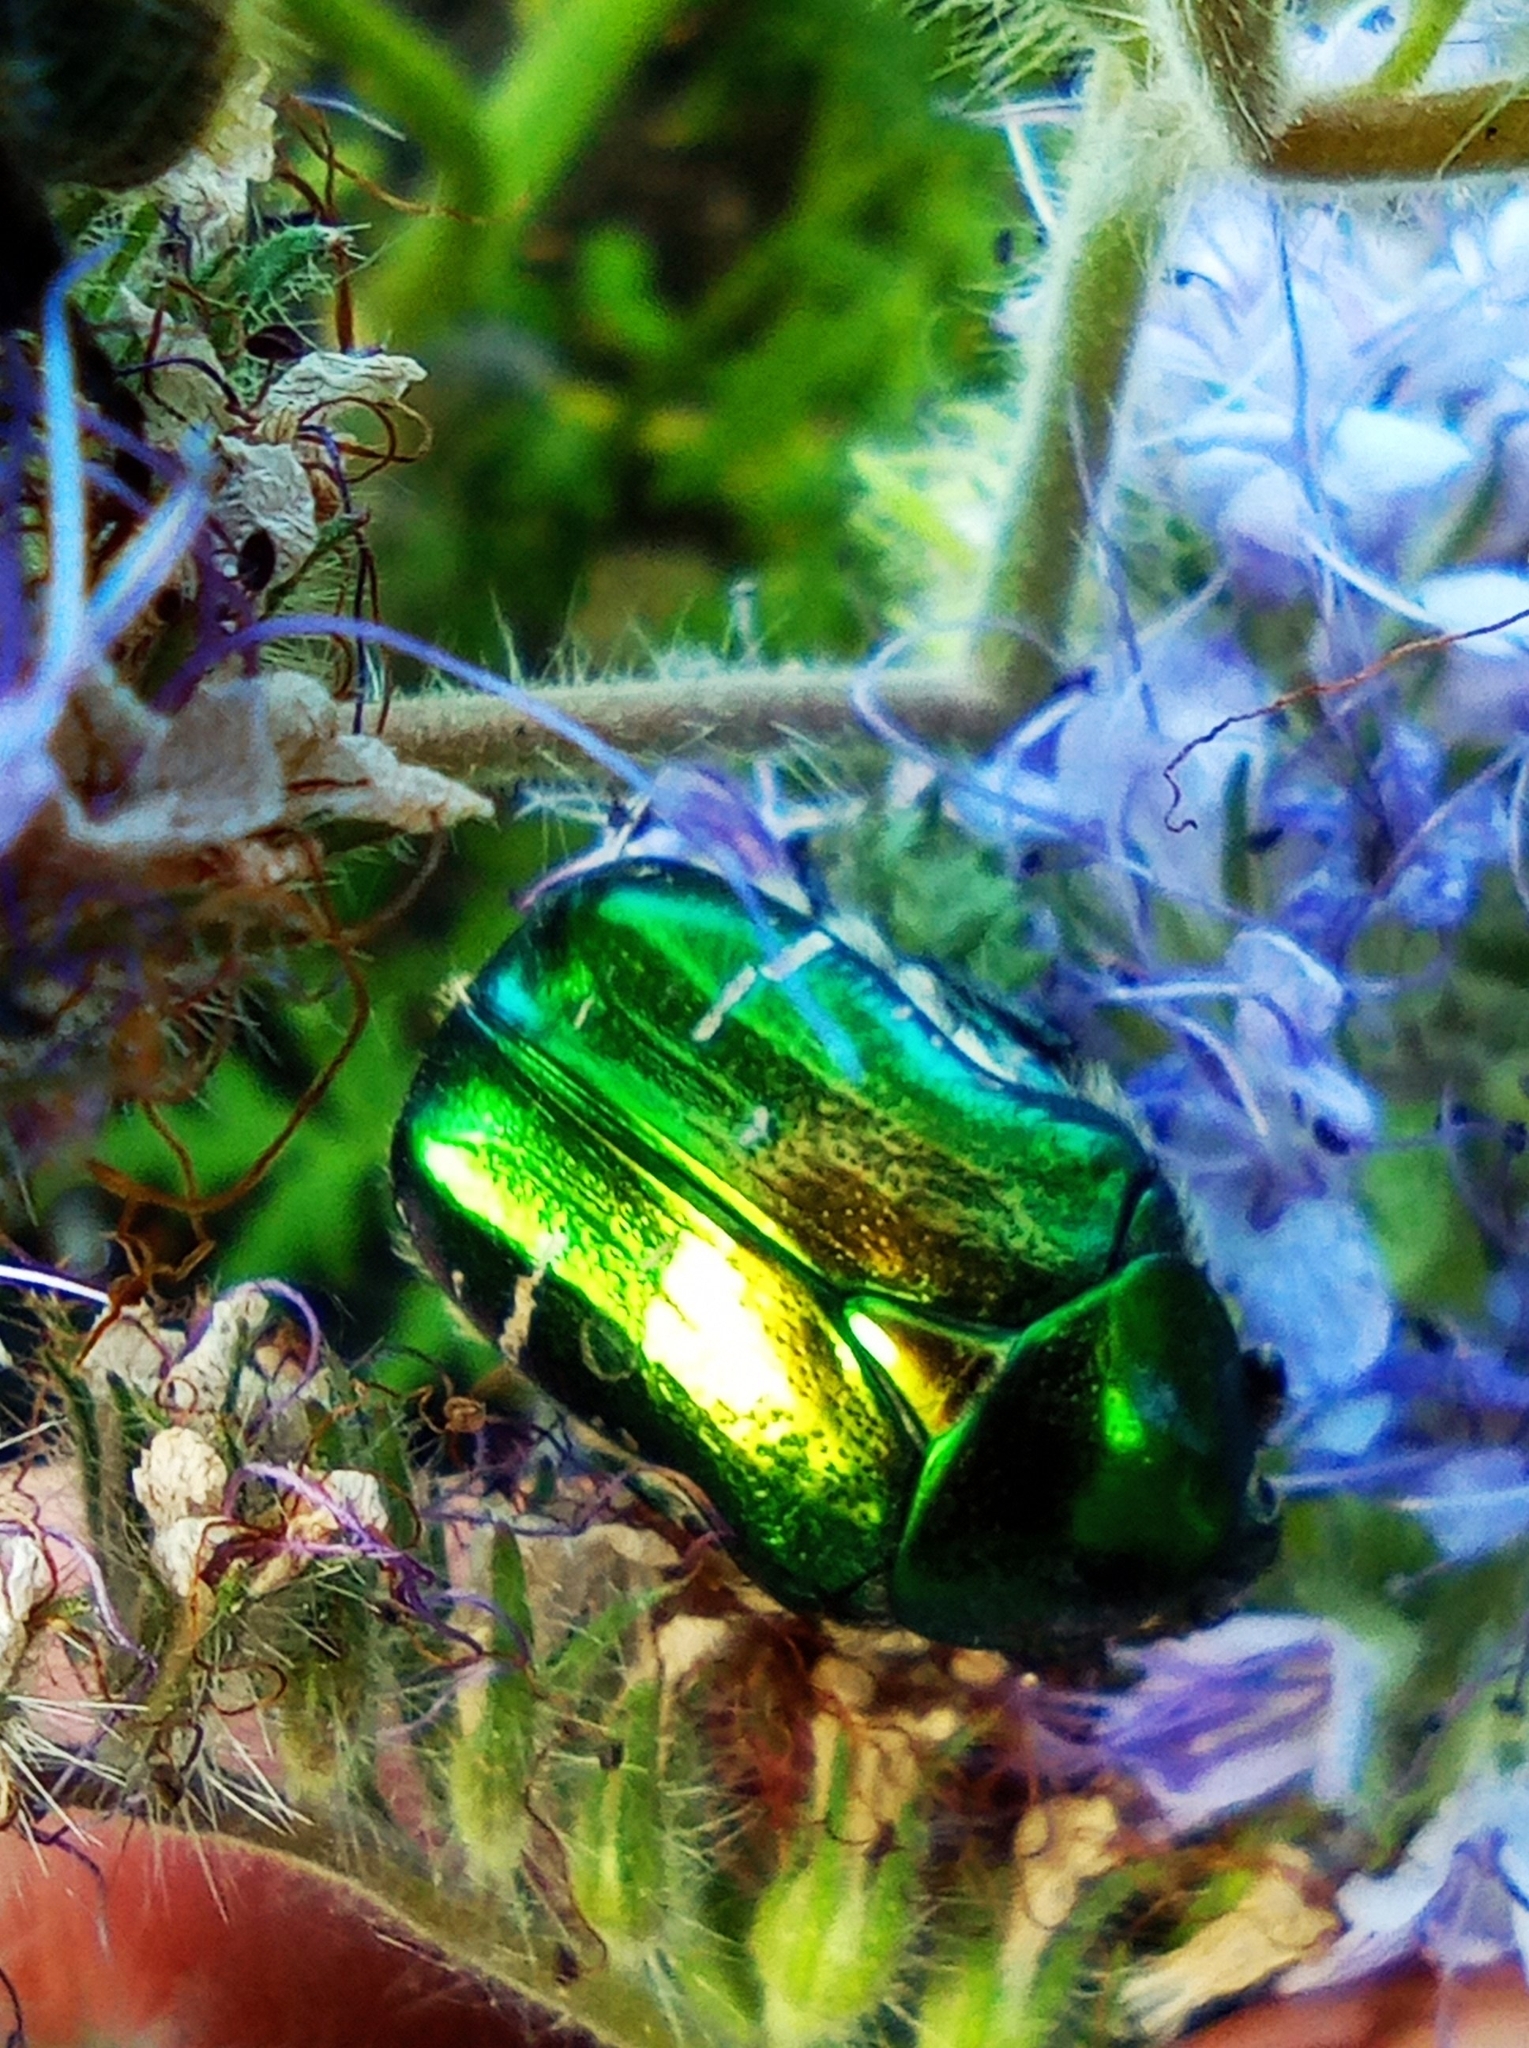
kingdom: Animalia
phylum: Arthropoda
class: Insecta
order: Coleoptera
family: Scarabaeidae
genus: Cetonia
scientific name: Cetonia aurata
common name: Rose chafer
